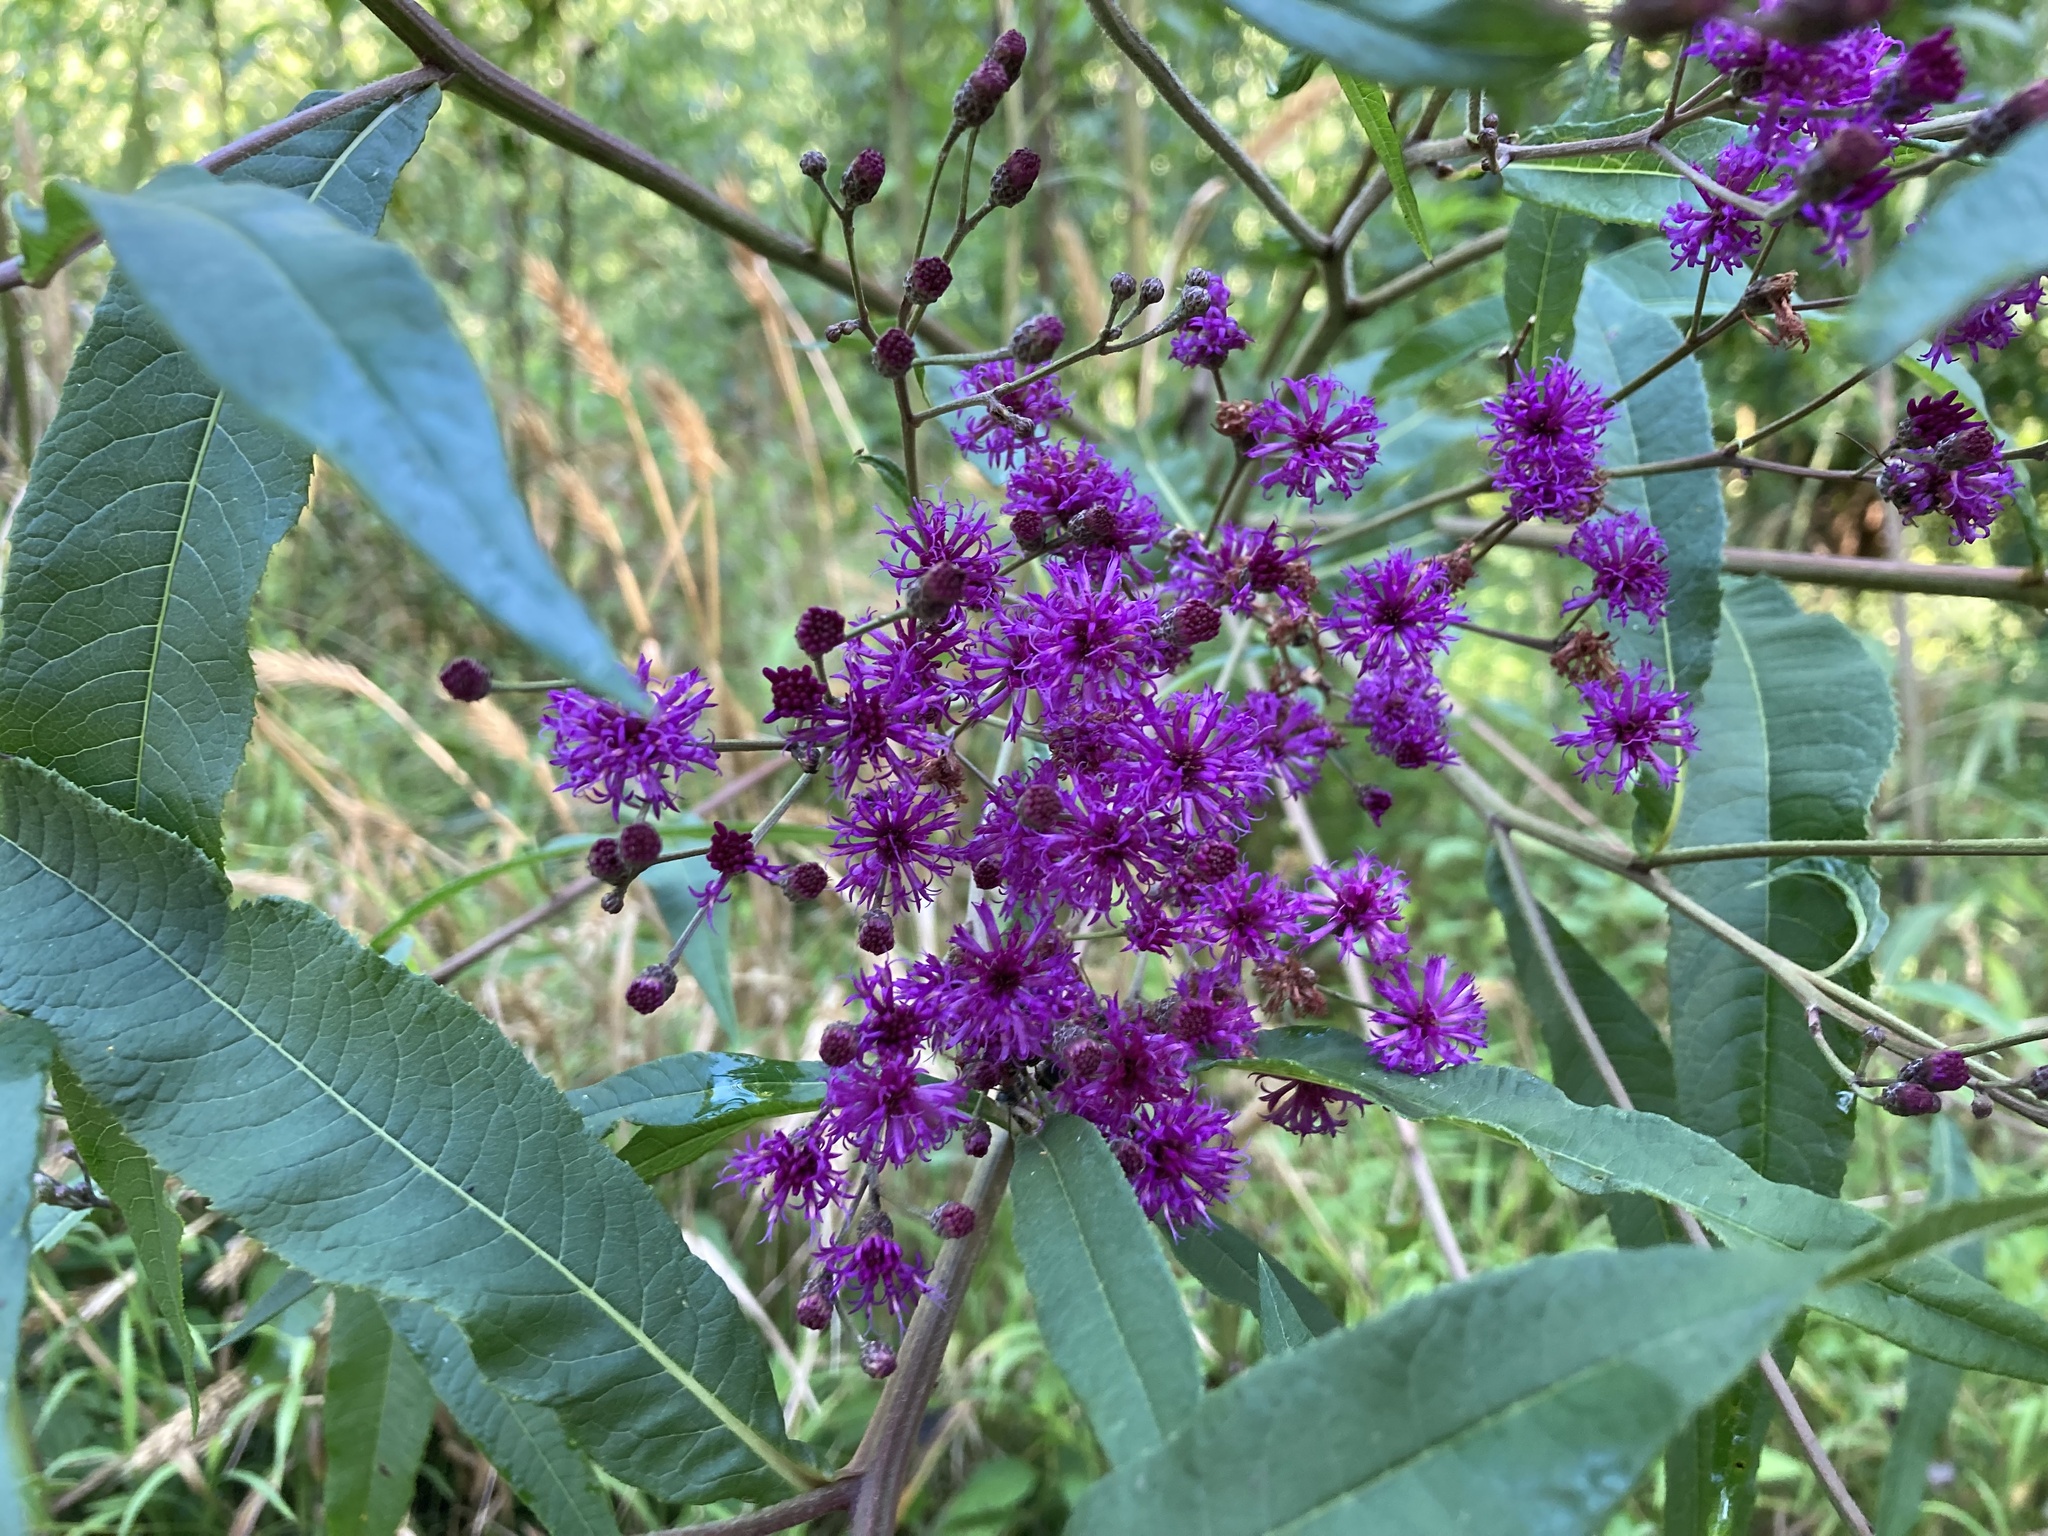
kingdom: Plantae
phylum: Tracheophyta
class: Magnoliopsida
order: Asterales
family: Asteraceae
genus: Vernonia
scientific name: Vernonia gigantea
